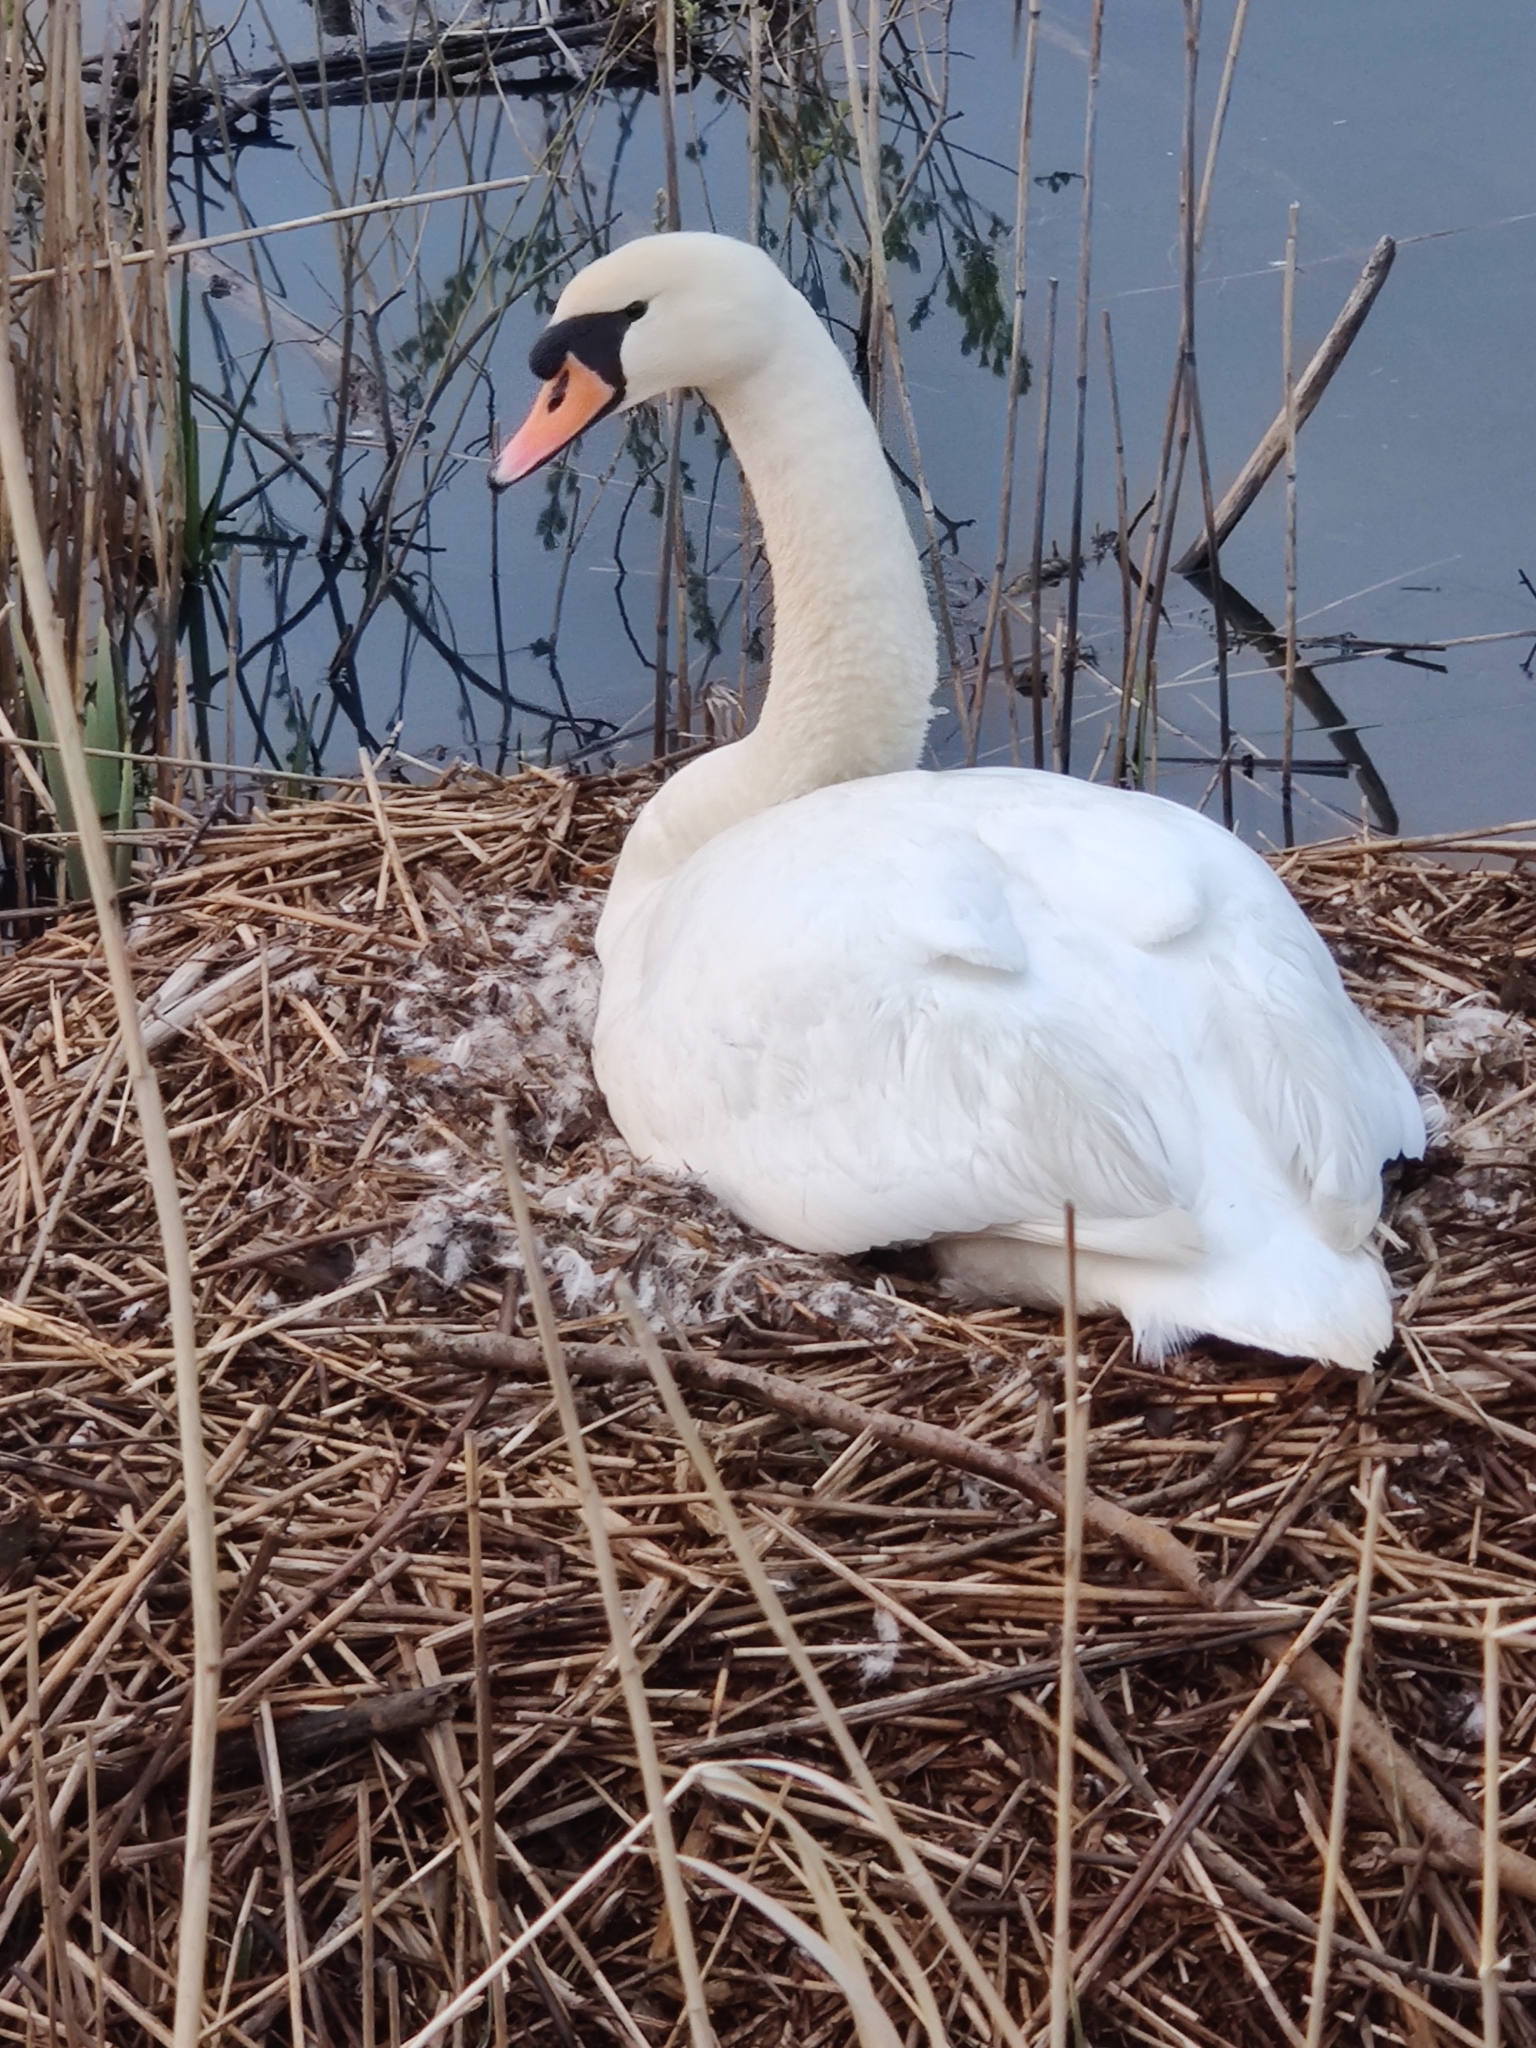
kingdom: Animalia
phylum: Chordata
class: Aves
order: Anseriformes
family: Anatidae
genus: Cygnus
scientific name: Cygnus olor
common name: Mute swan
